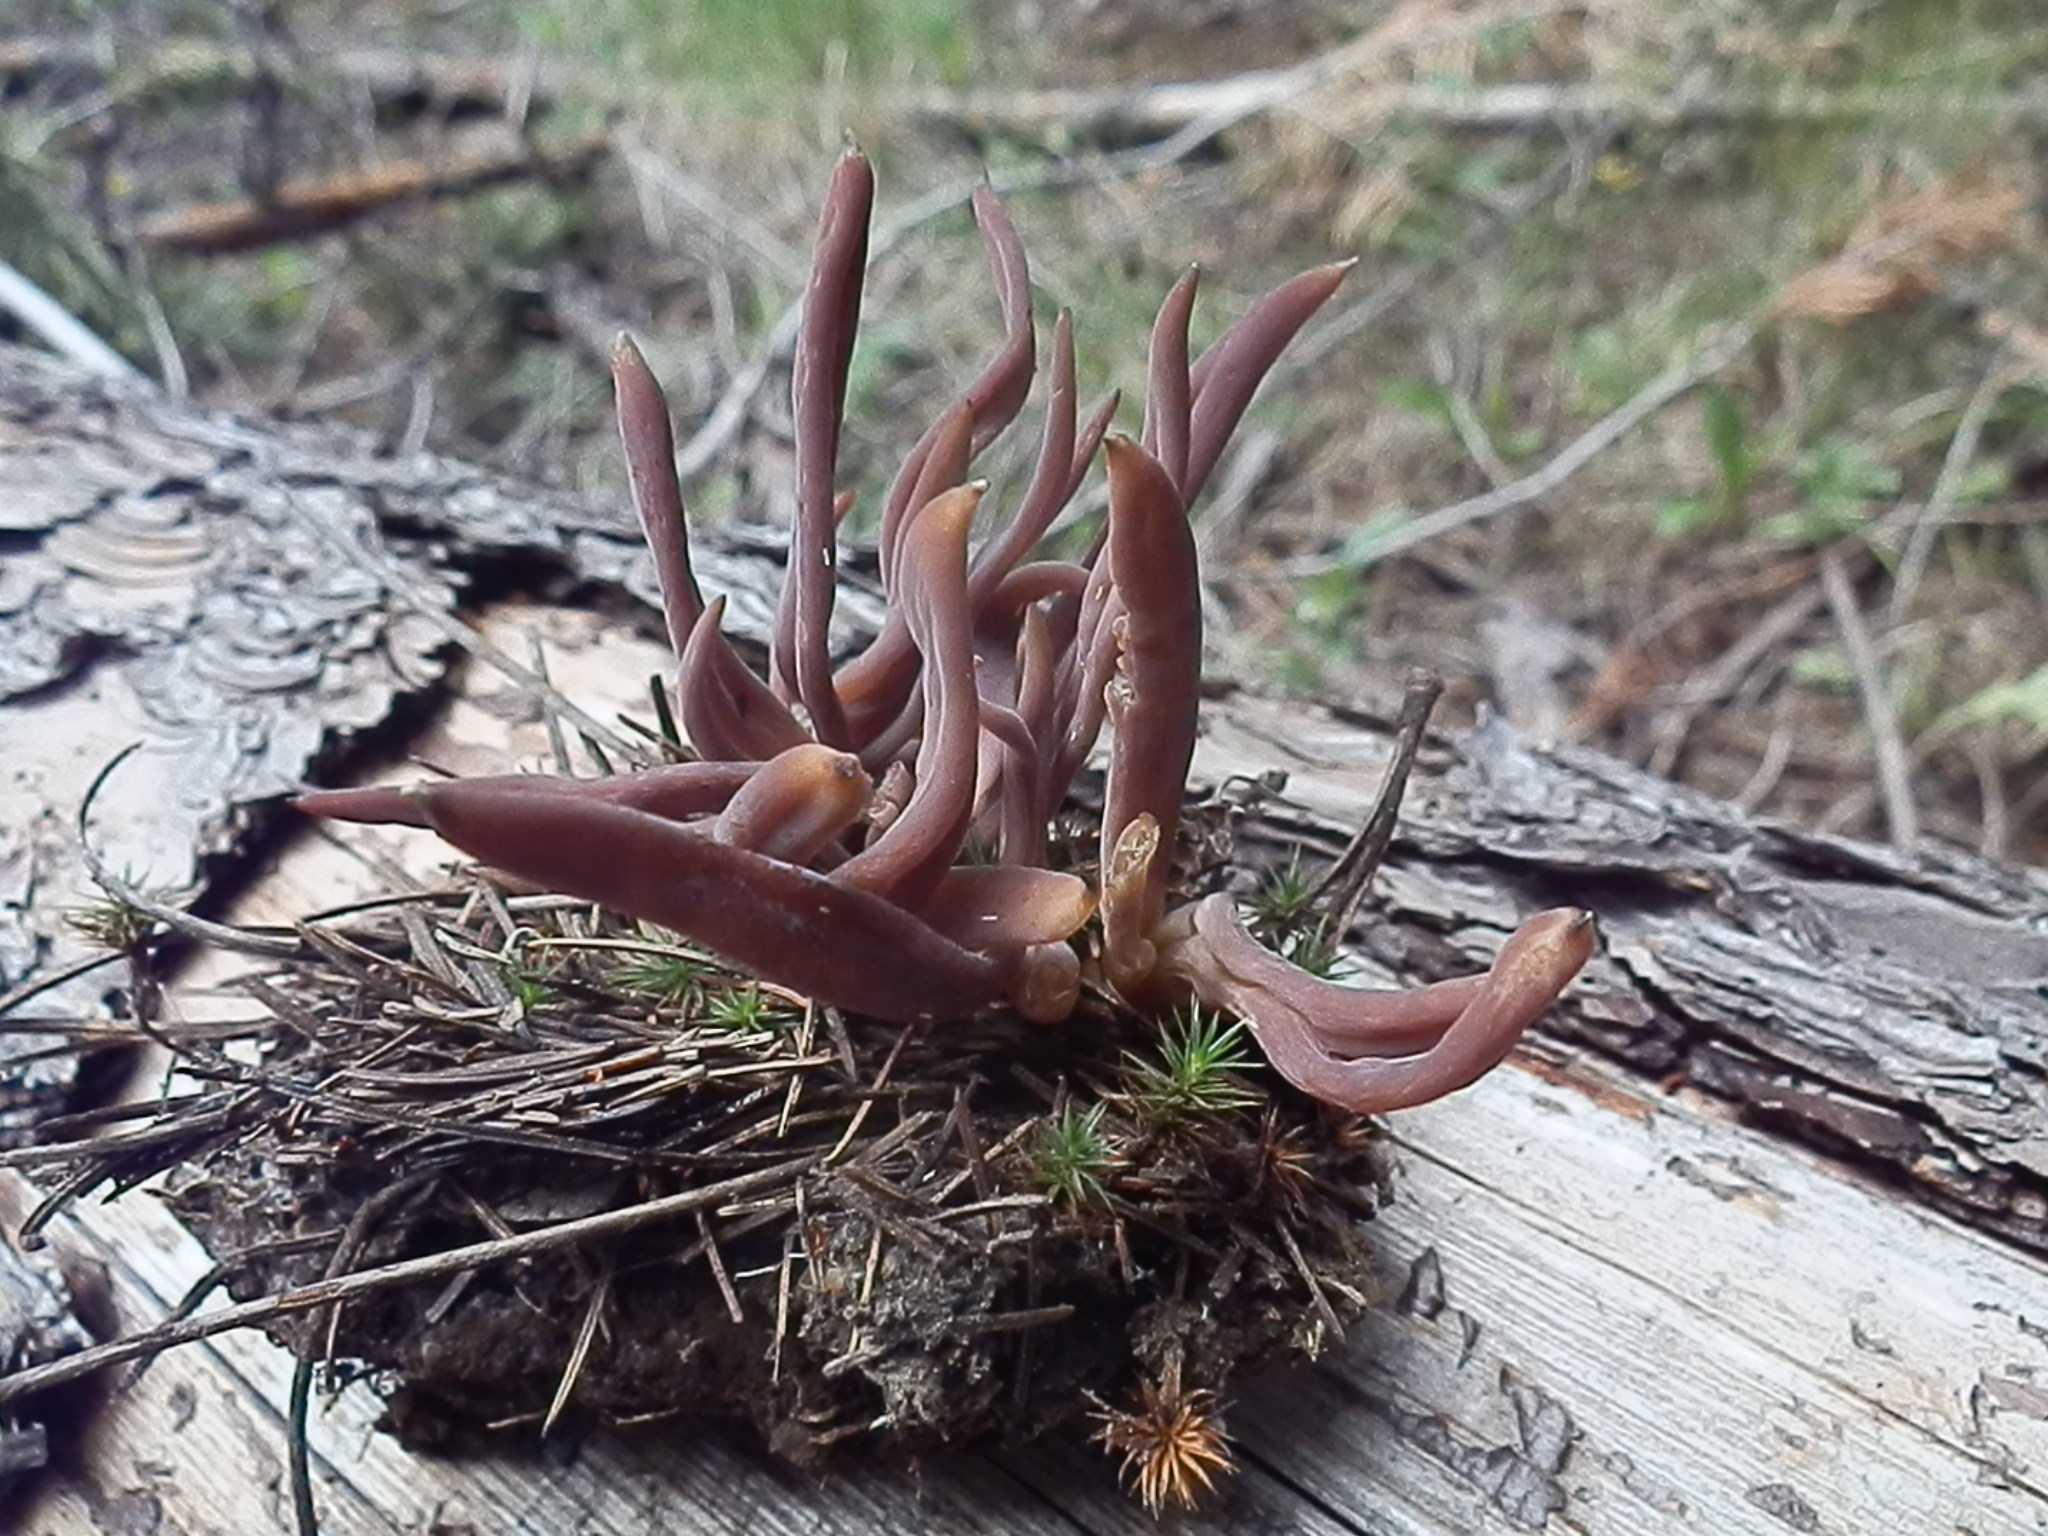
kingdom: Fungi
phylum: Basidiomycota
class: Agaricomycetes
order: Hymenochaetales
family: Rickenellaceae
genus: Alloclavaria
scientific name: Alloclavaria purpurea
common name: Purple spindles
